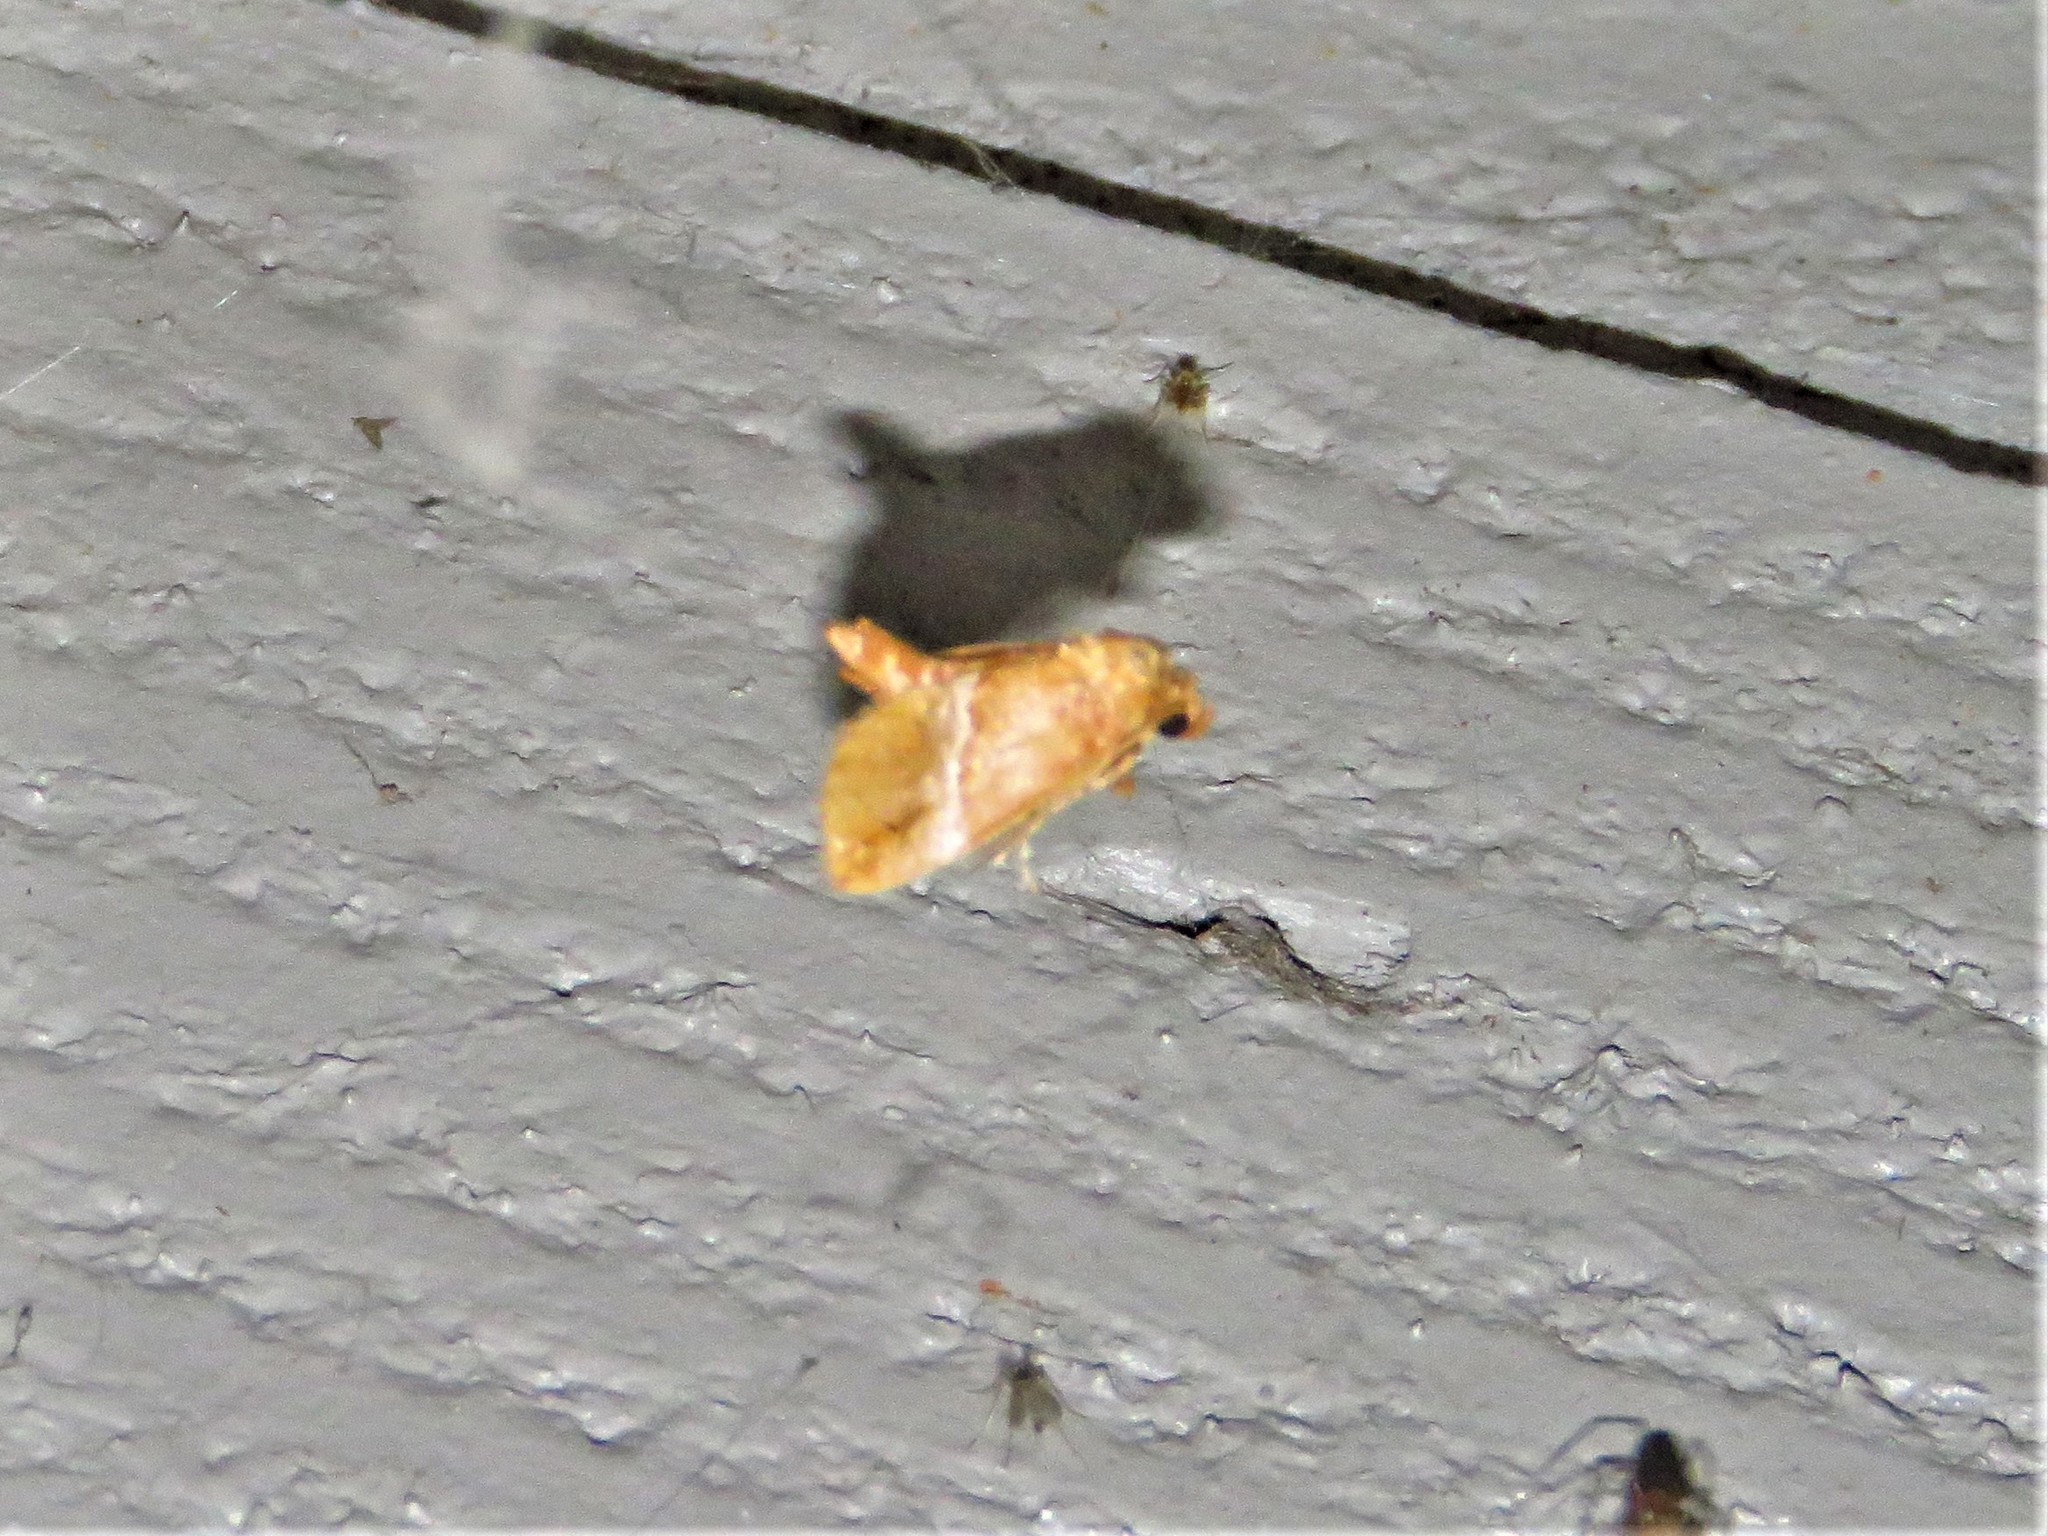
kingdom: Animalia
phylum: Arthropoda
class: Insecta
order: Lepidoptera
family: Limacodidae
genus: Lithacodes
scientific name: Lithacodes fasciola
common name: Yellow-shouldered slug moth
